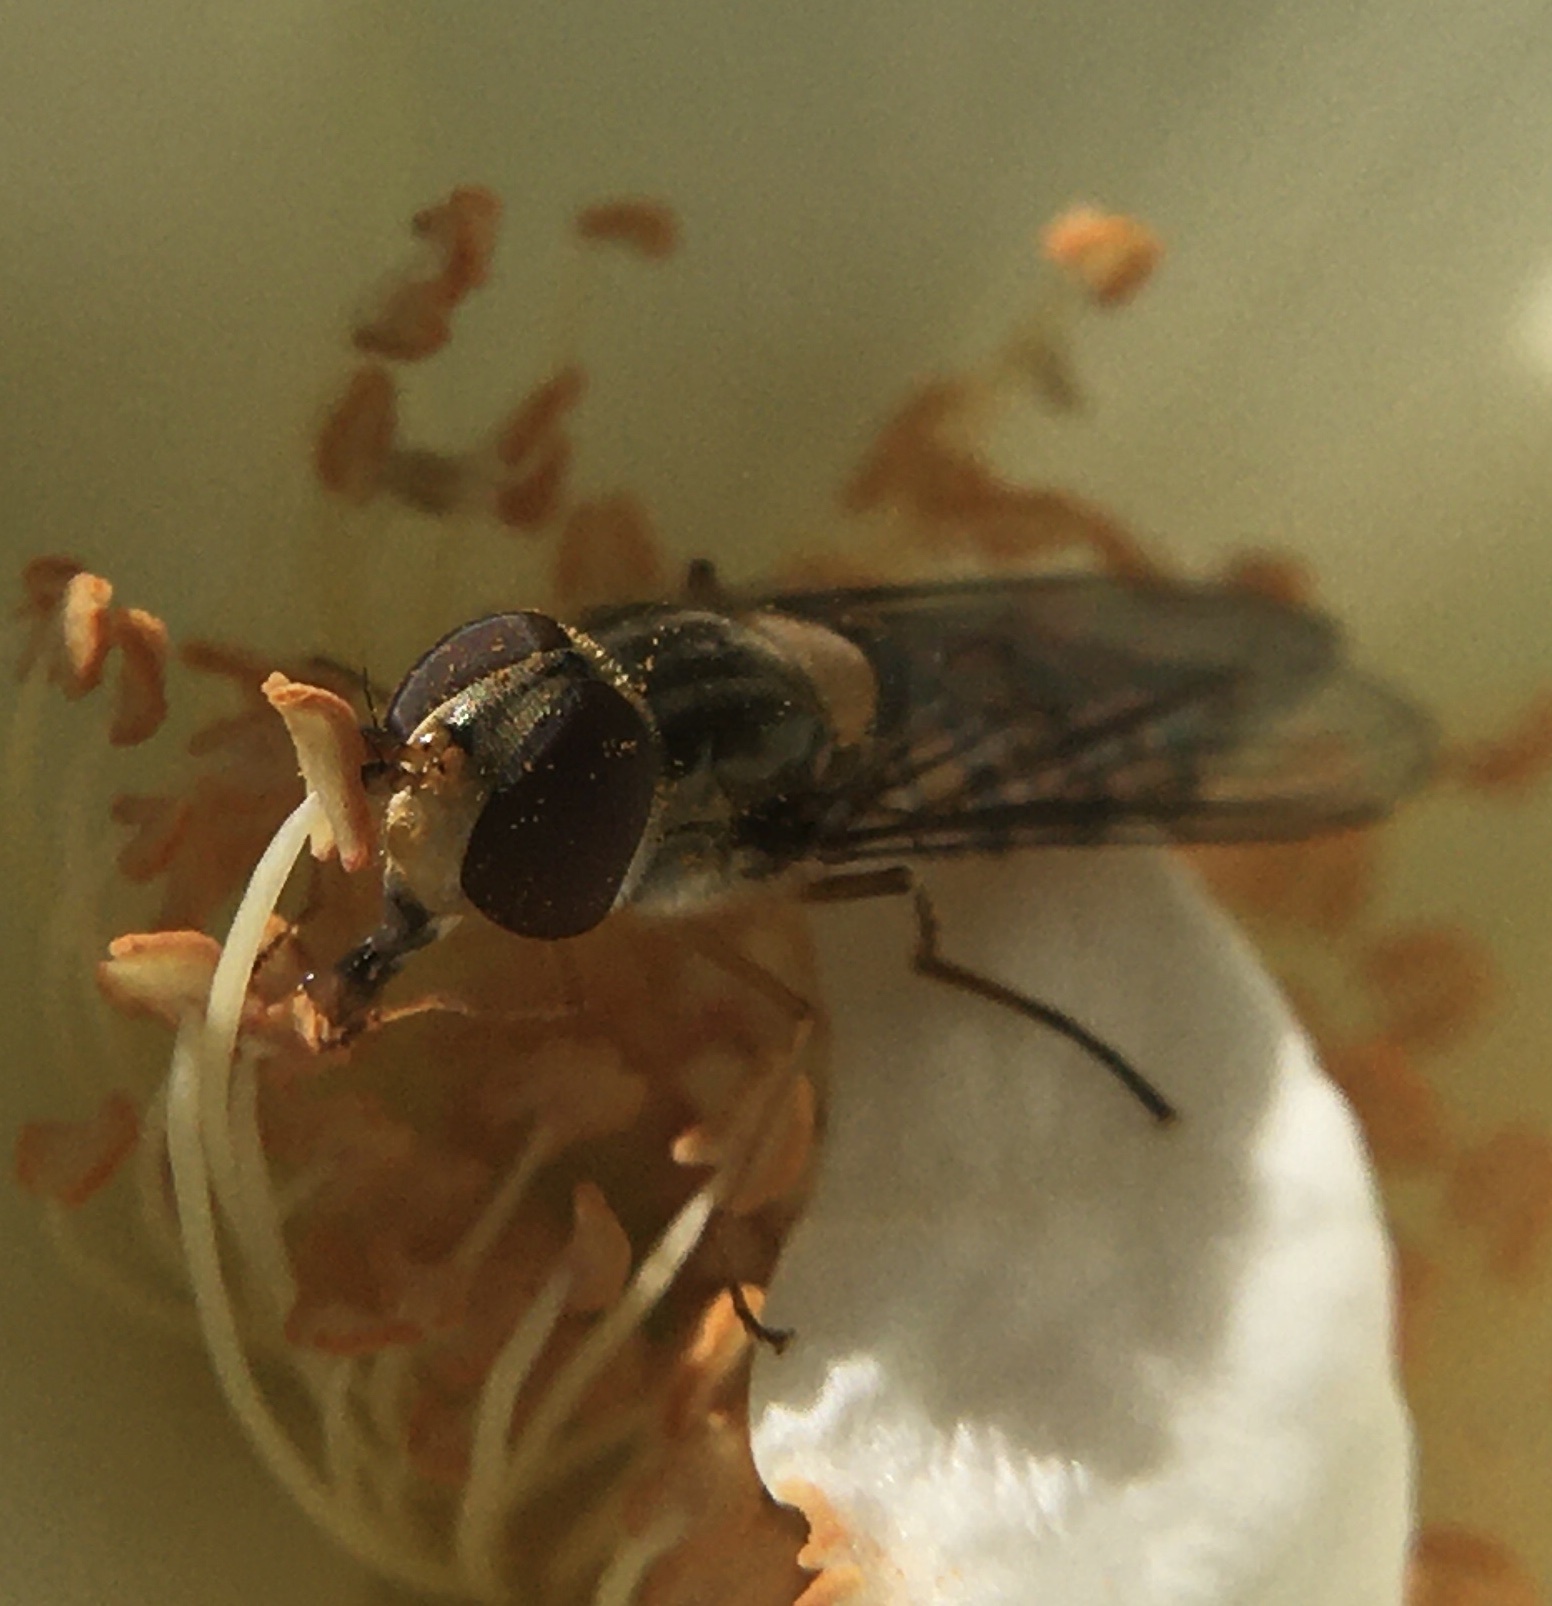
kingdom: Animalia
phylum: Arthropoda
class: Insecta
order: Diptera
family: Syrphidae
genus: Episyrphus
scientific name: Episyrphus balteatus
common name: Marmalade hoverfly
